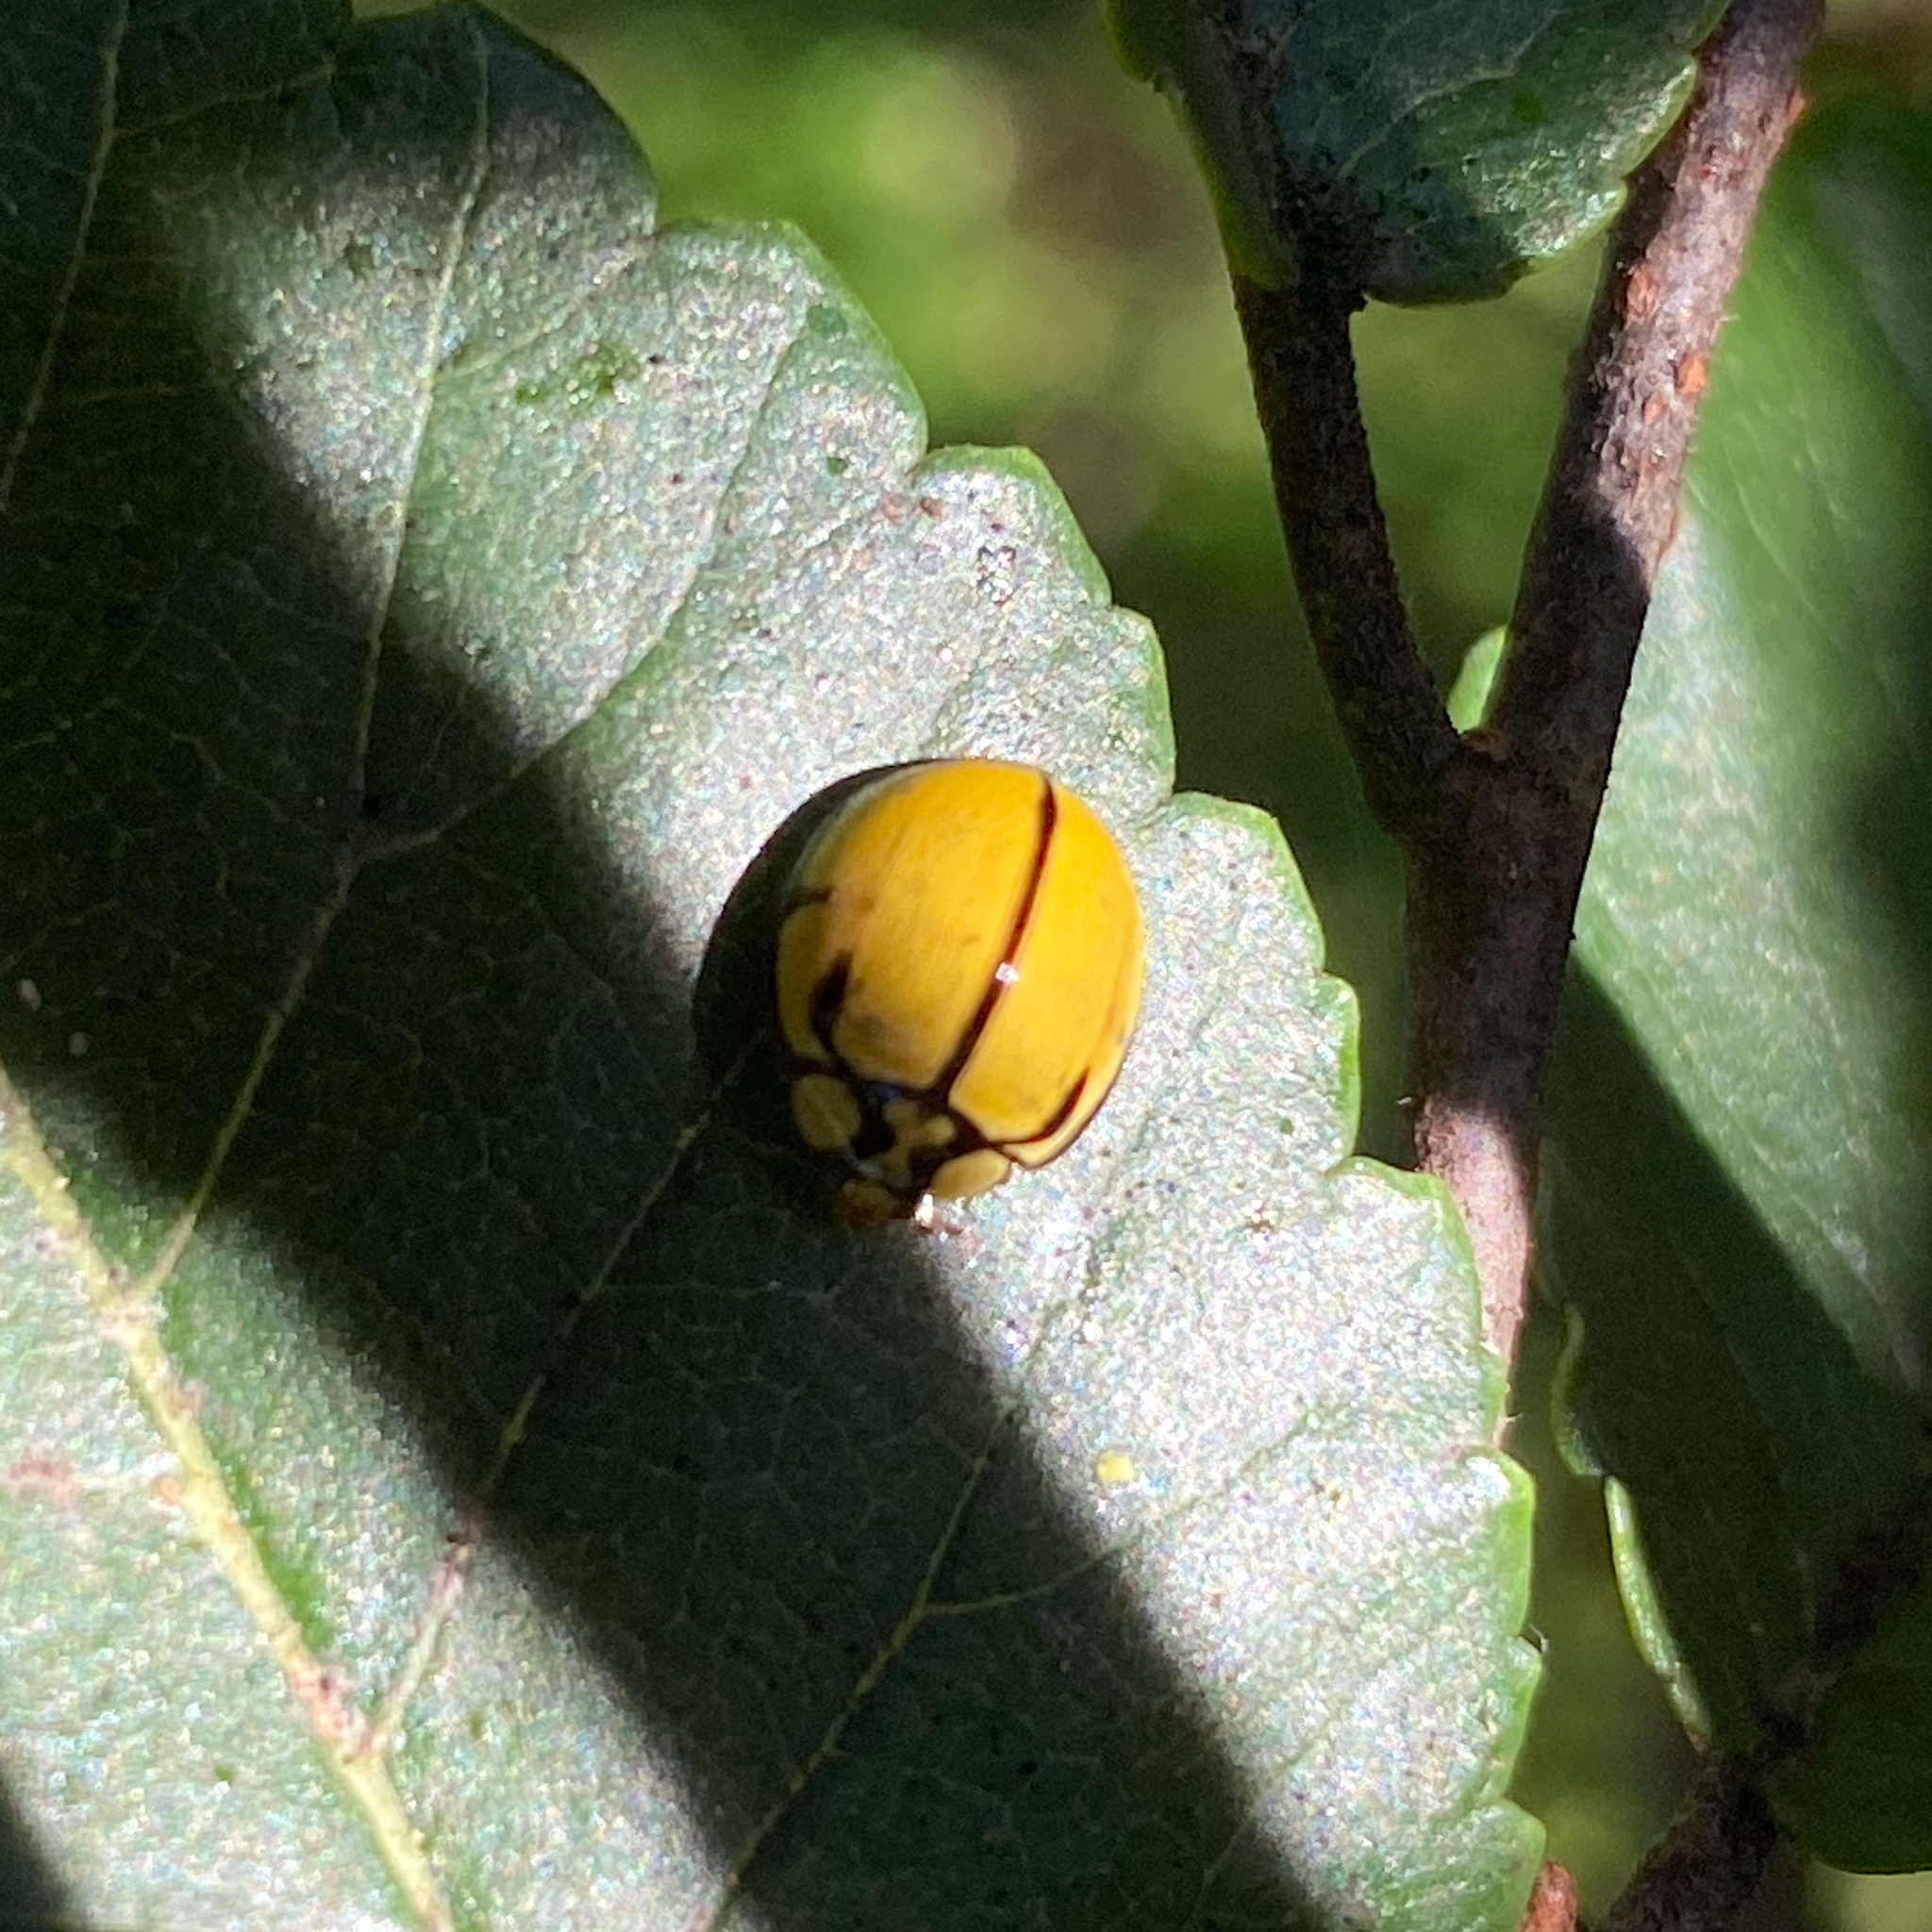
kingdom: Animalia
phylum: Arthropoda
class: Insecta
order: Coleoptera
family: Coccinellidae
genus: Harmonia
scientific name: Harmonia
